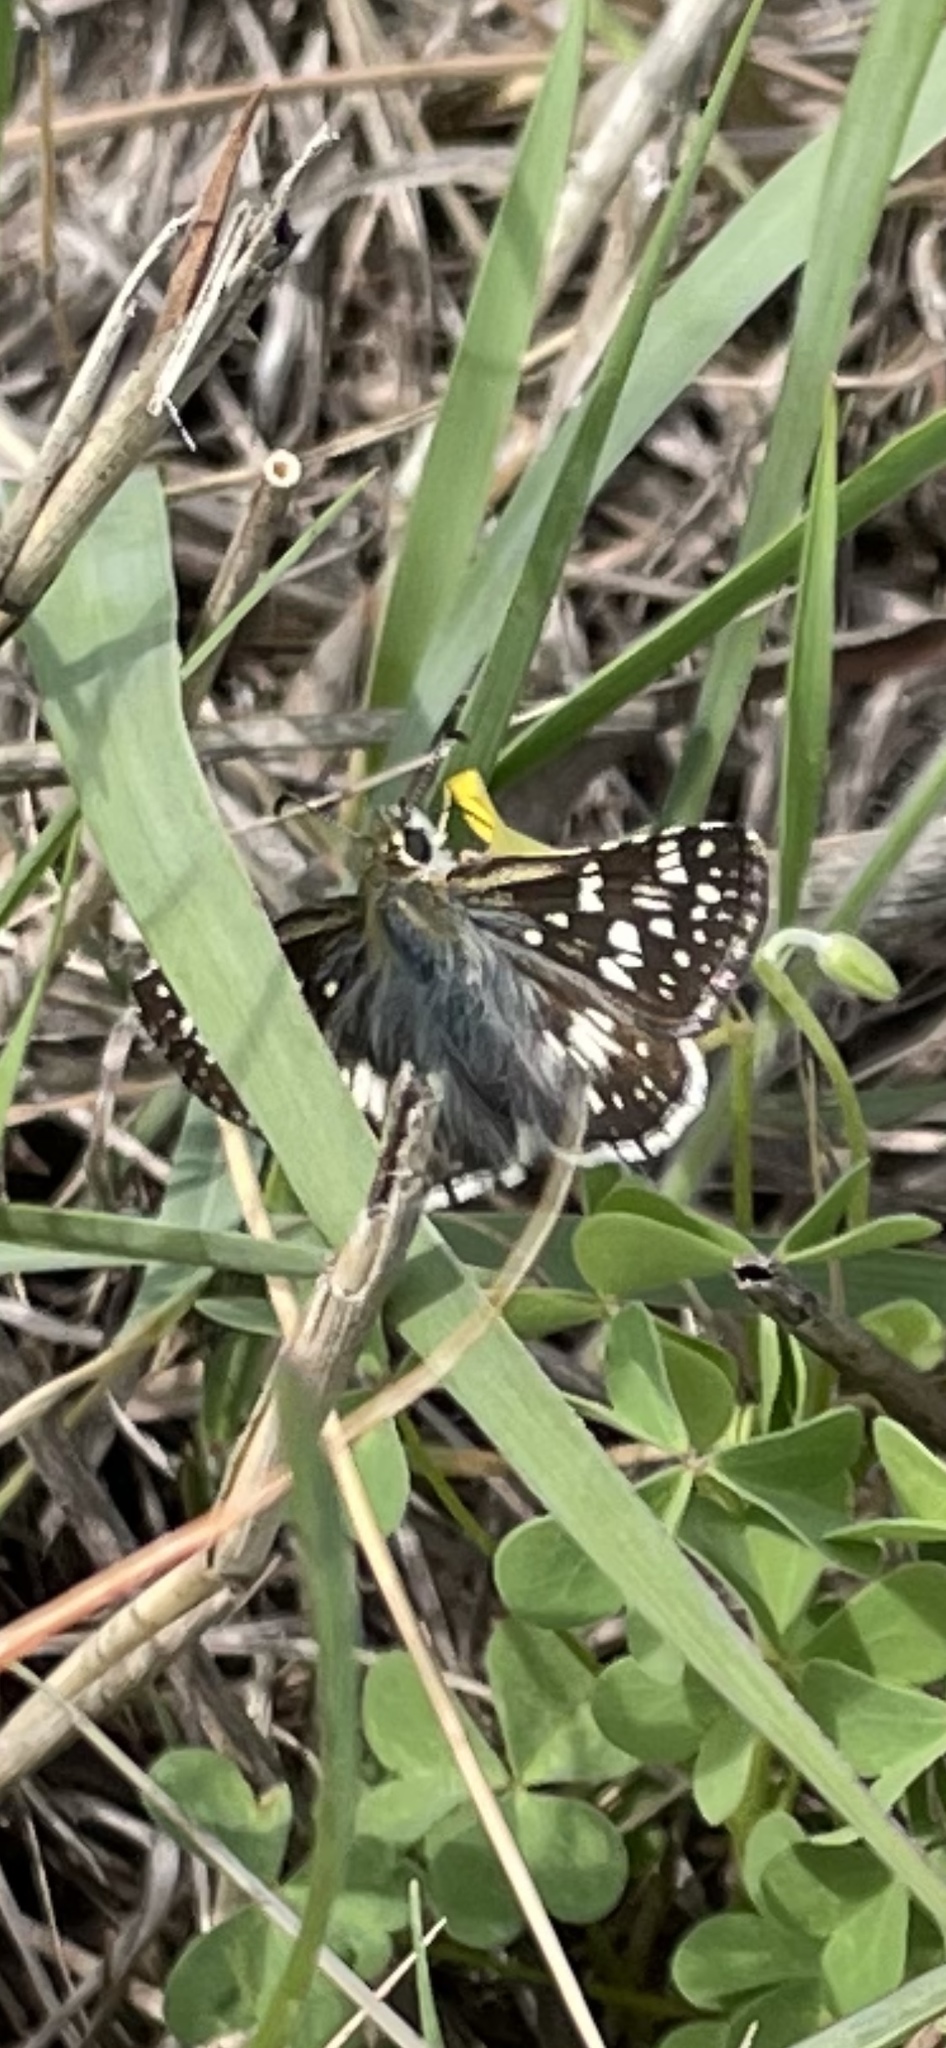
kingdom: Animalia
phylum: Arthropoda
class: Insecta
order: Lepidoptera
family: Hesperiidae
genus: Burnsius
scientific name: Burnsius communis
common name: Common checkered-skipper
